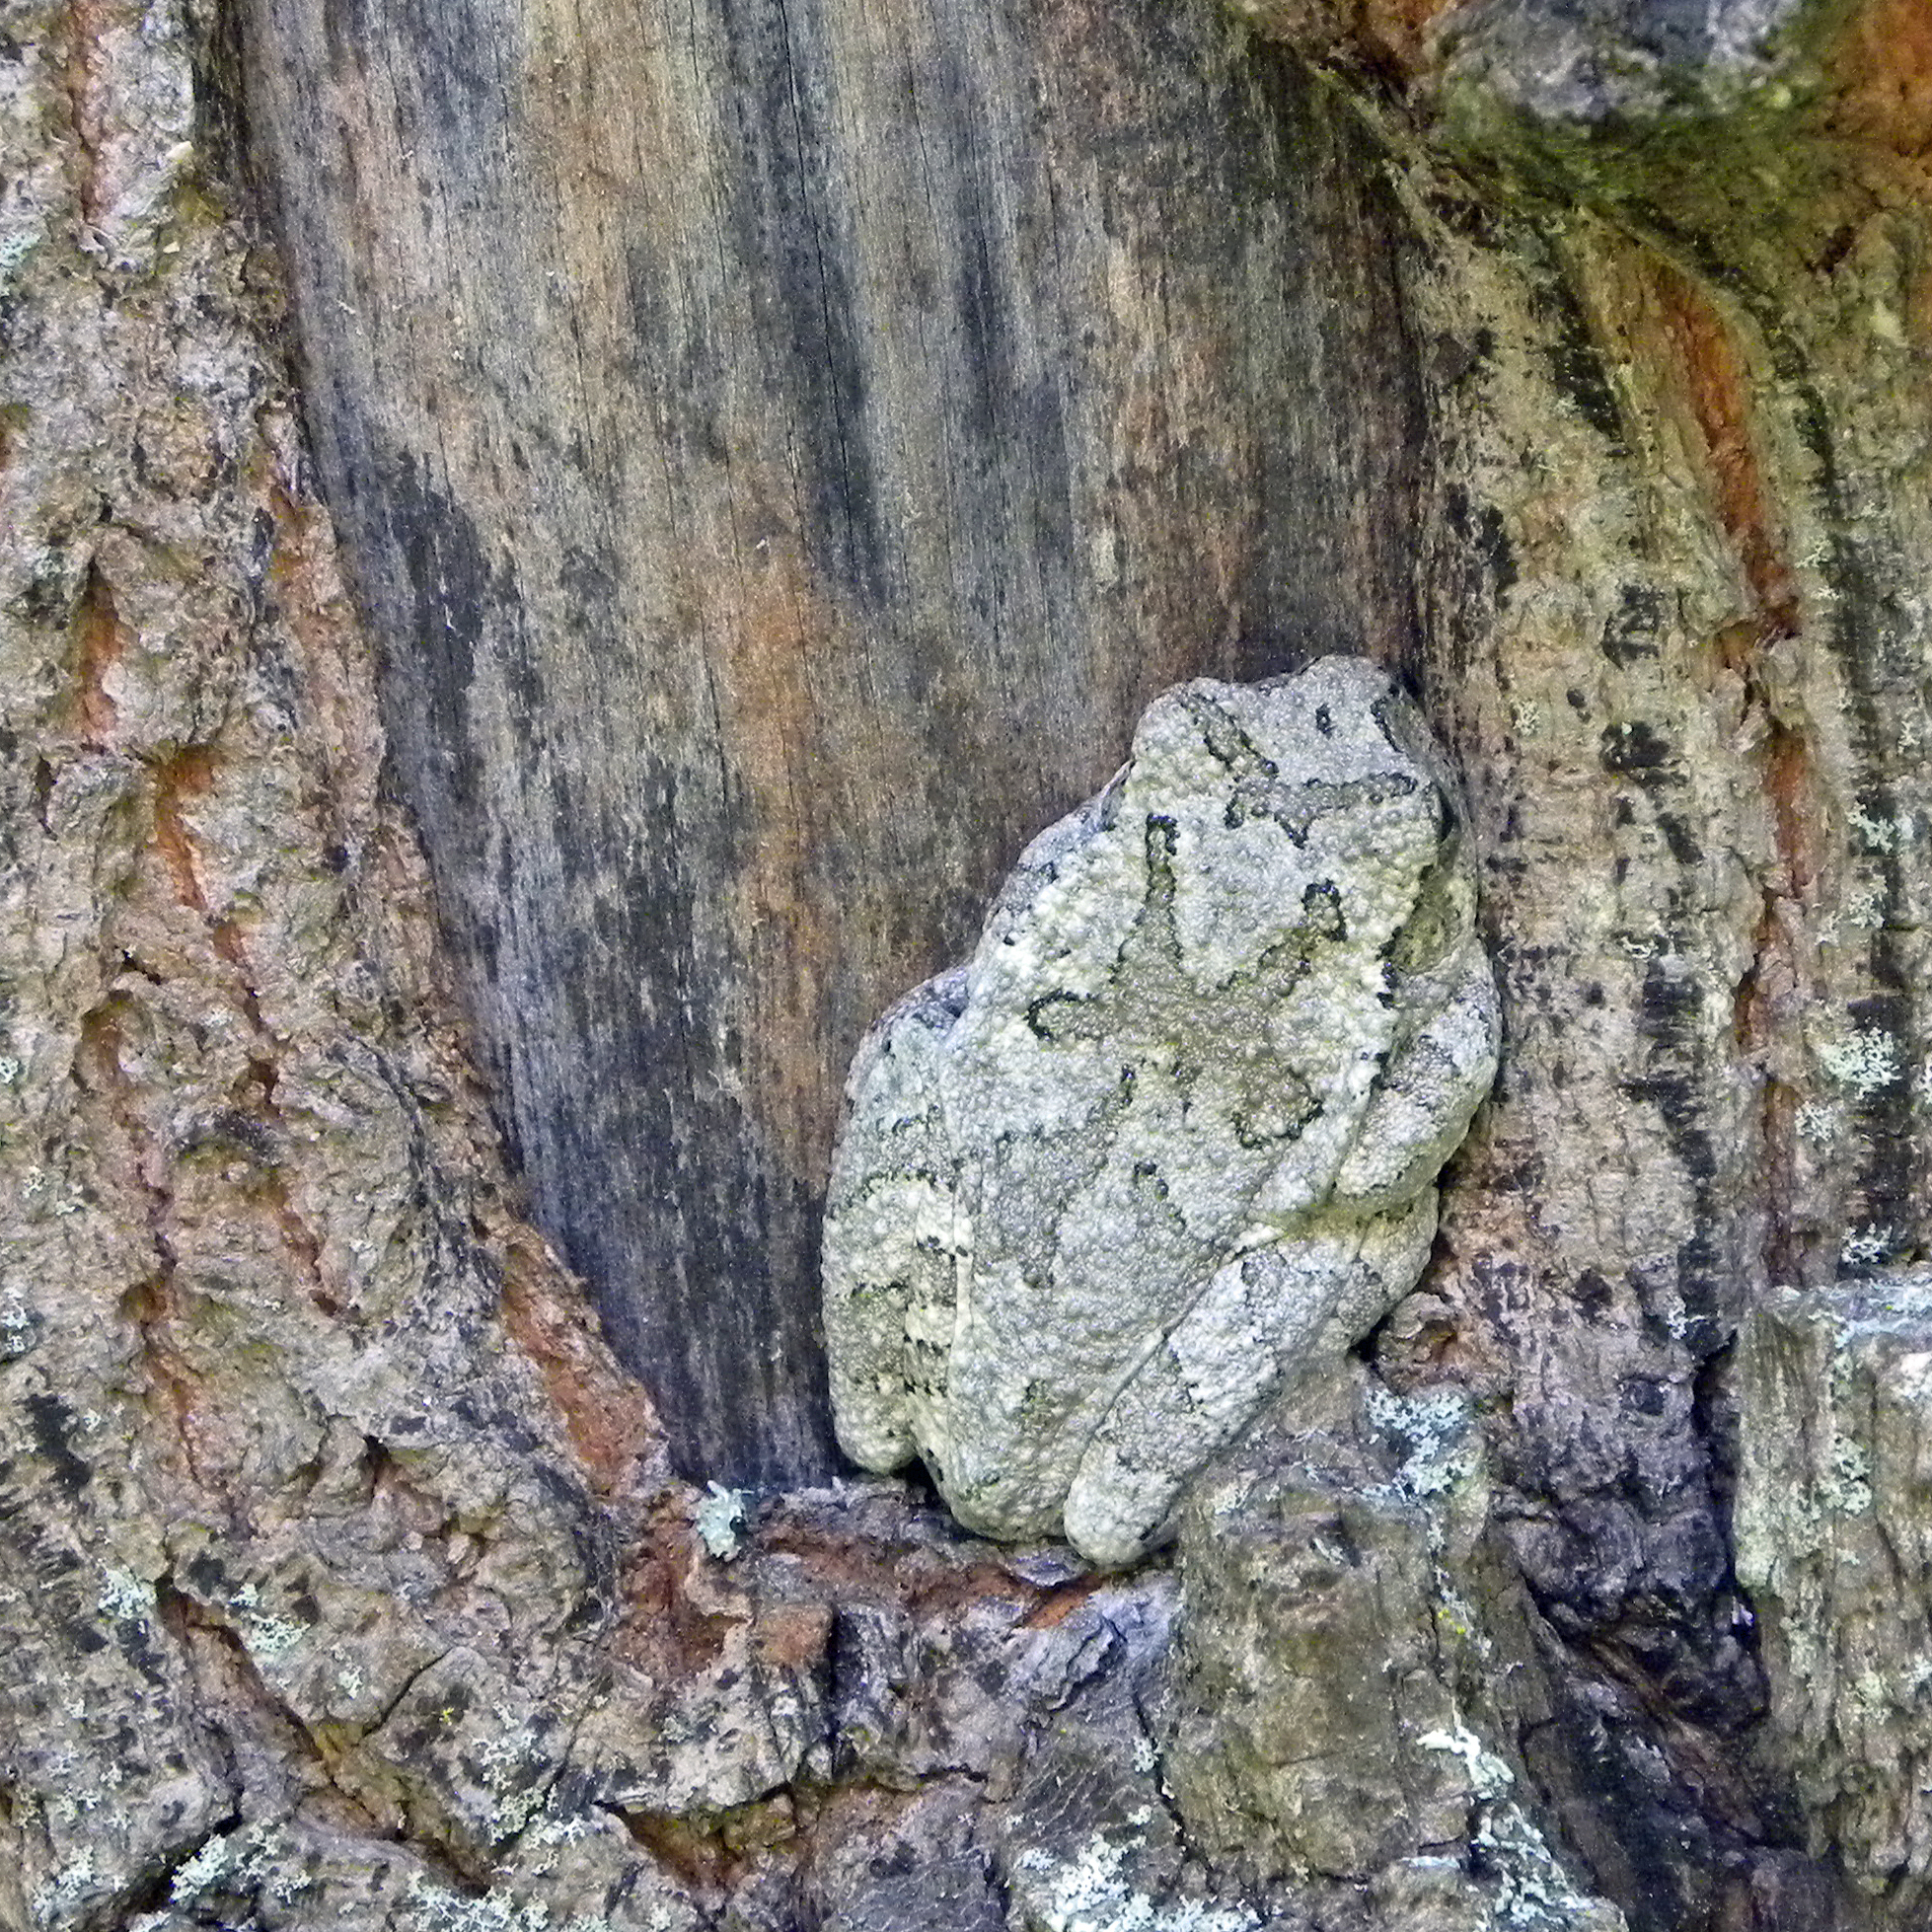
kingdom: Animalia
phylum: Chordata
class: Amphibia
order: Anura
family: Hylidae
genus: Dryophytes
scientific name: Dryophytes chrysoscelis
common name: Cope's gray treefrog
